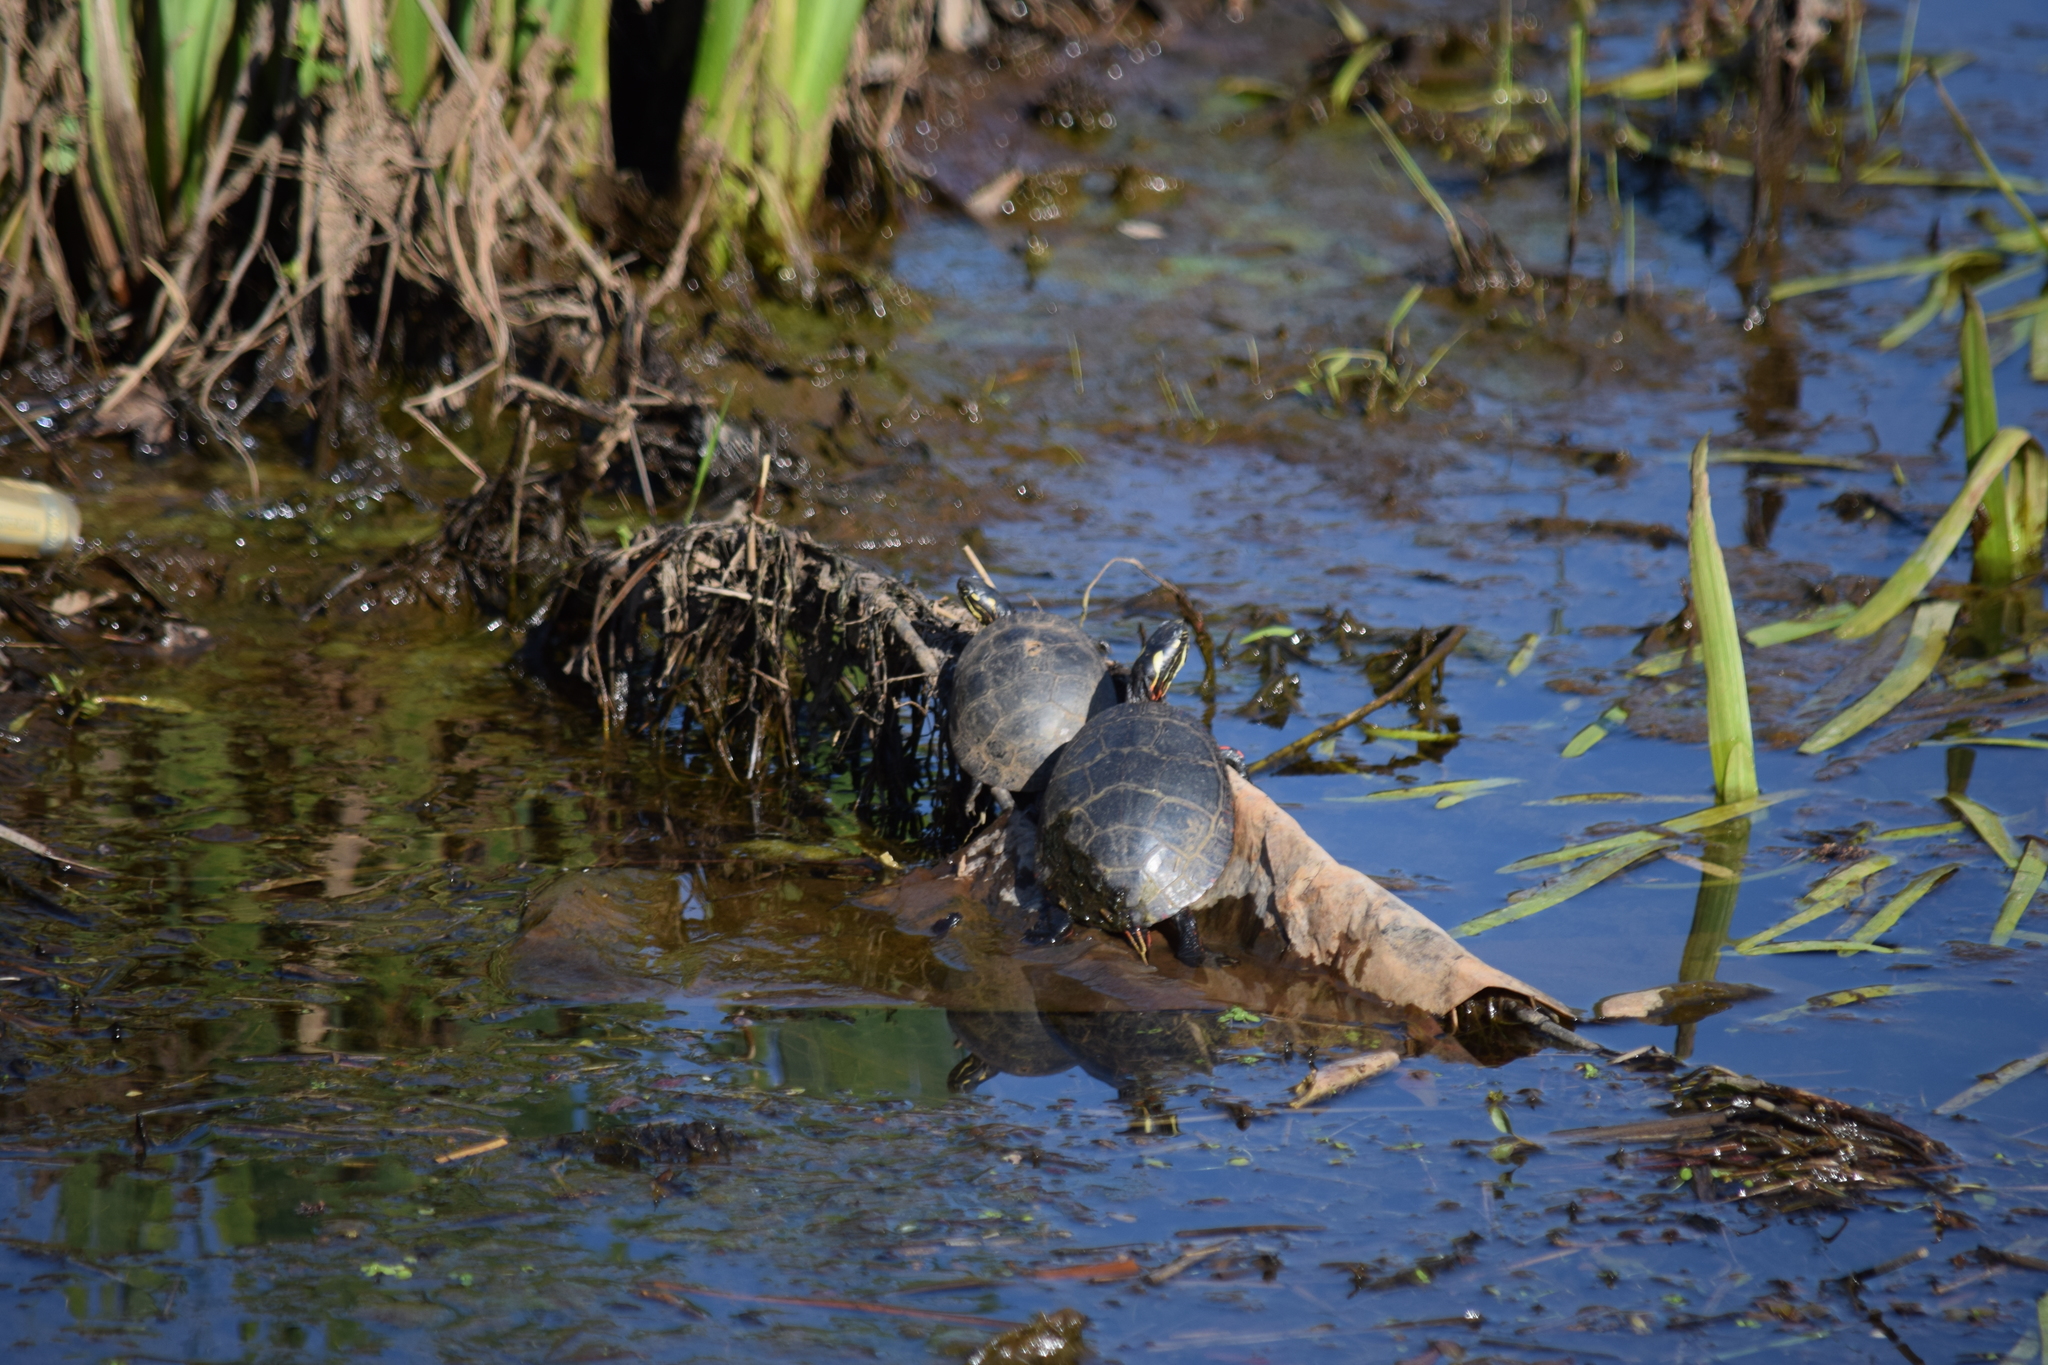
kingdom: Animalia
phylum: Chordata
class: Testudines
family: Emydidae
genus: Chrysemys
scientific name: Chrysemys picta
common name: Painted turtle
